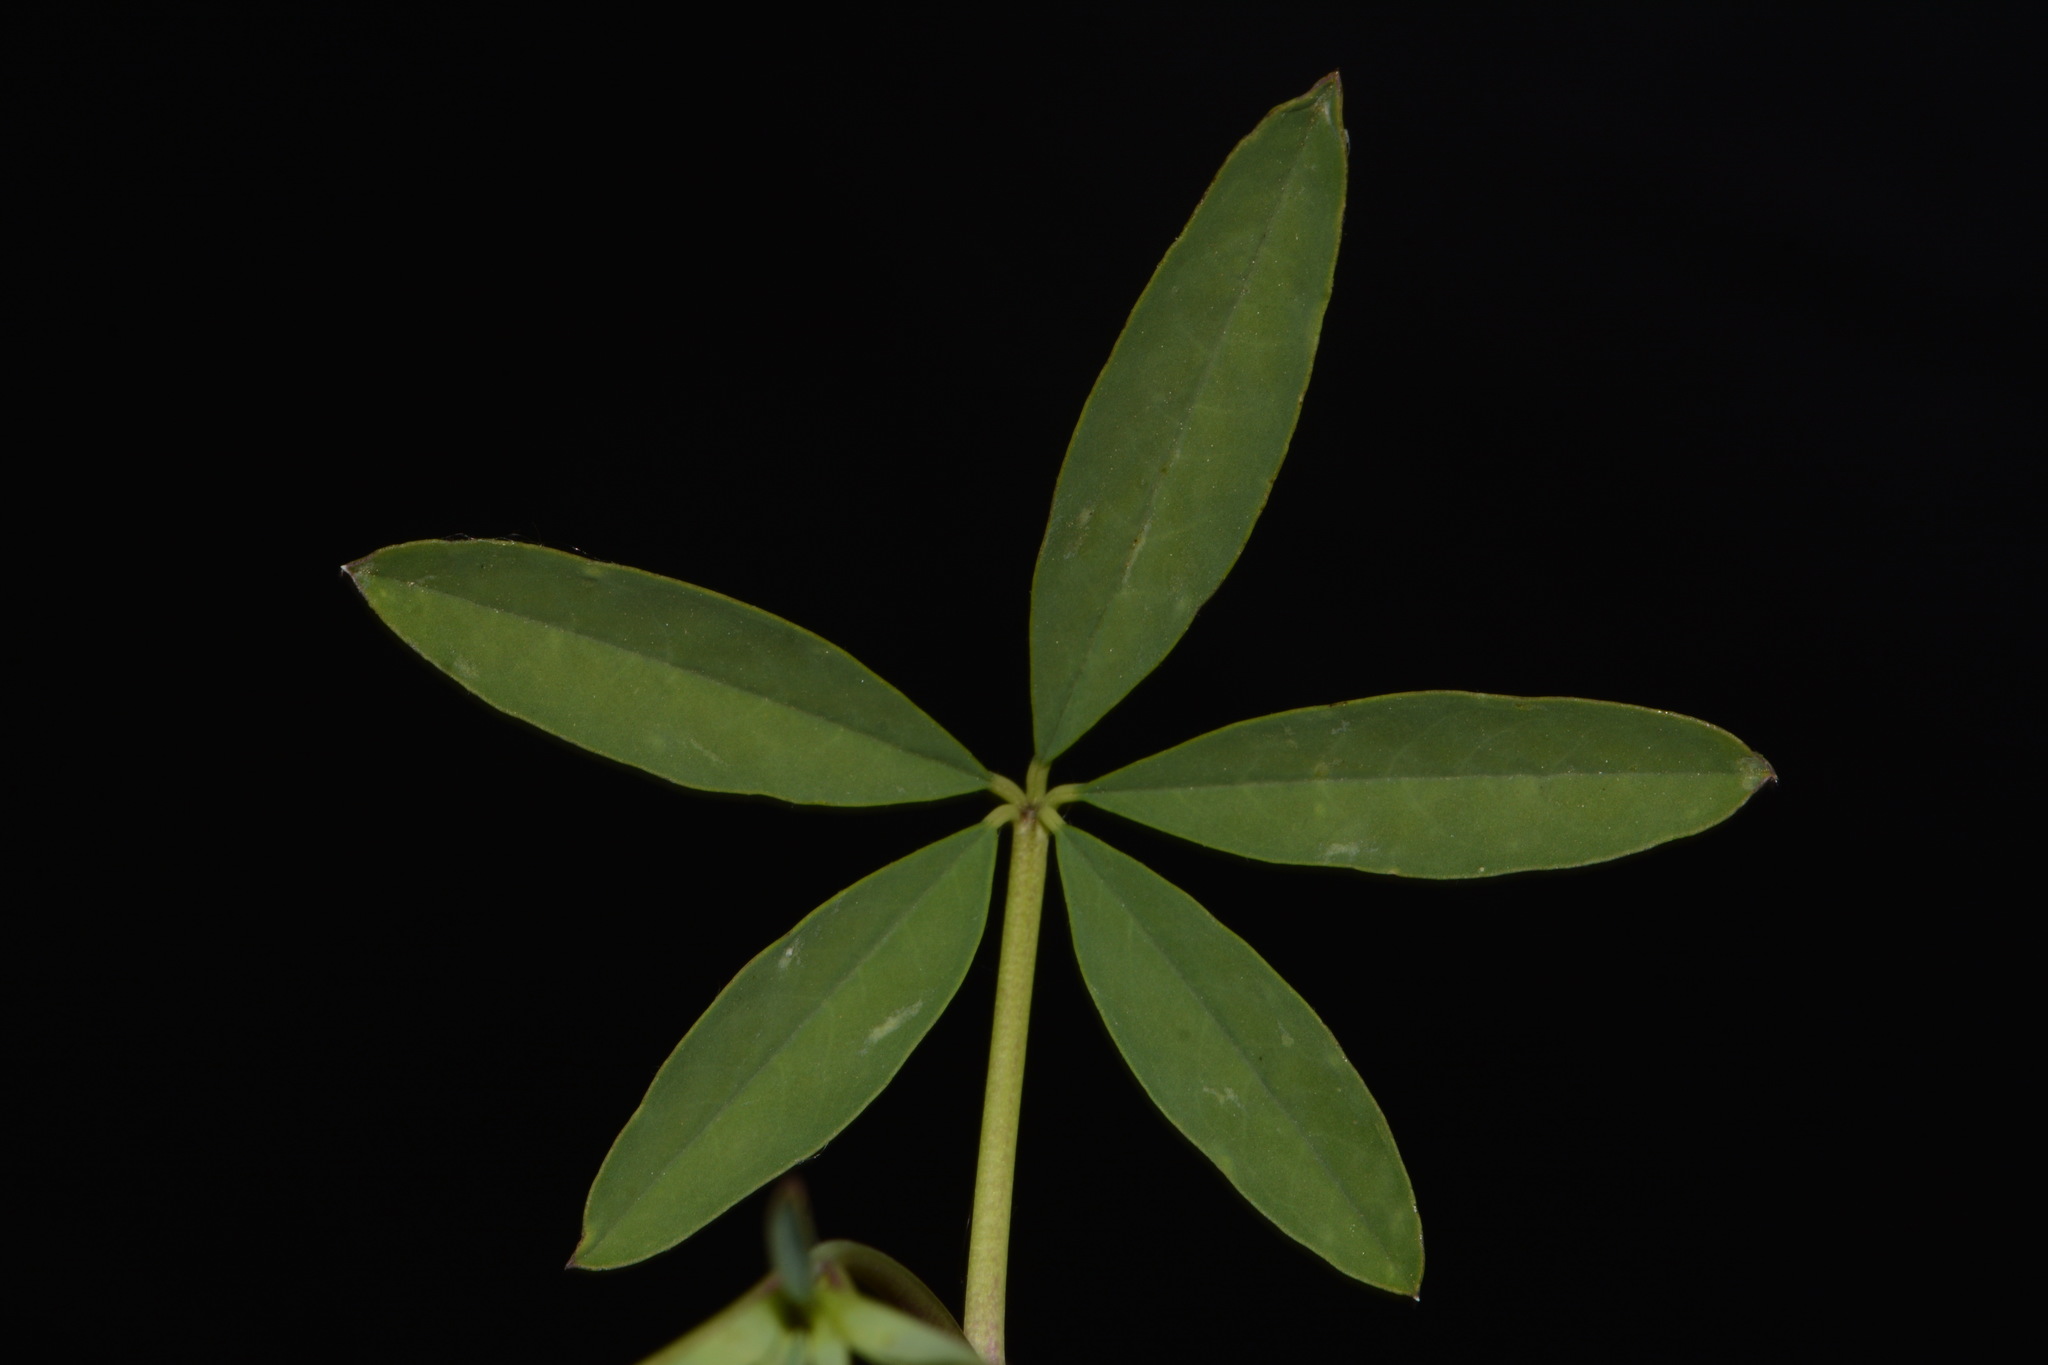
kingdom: Plantae
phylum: Tracheophyta
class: Magnoliopsida
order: Brassicales
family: Cleomaceae
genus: Cleomella
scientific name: Cleomella lutea
